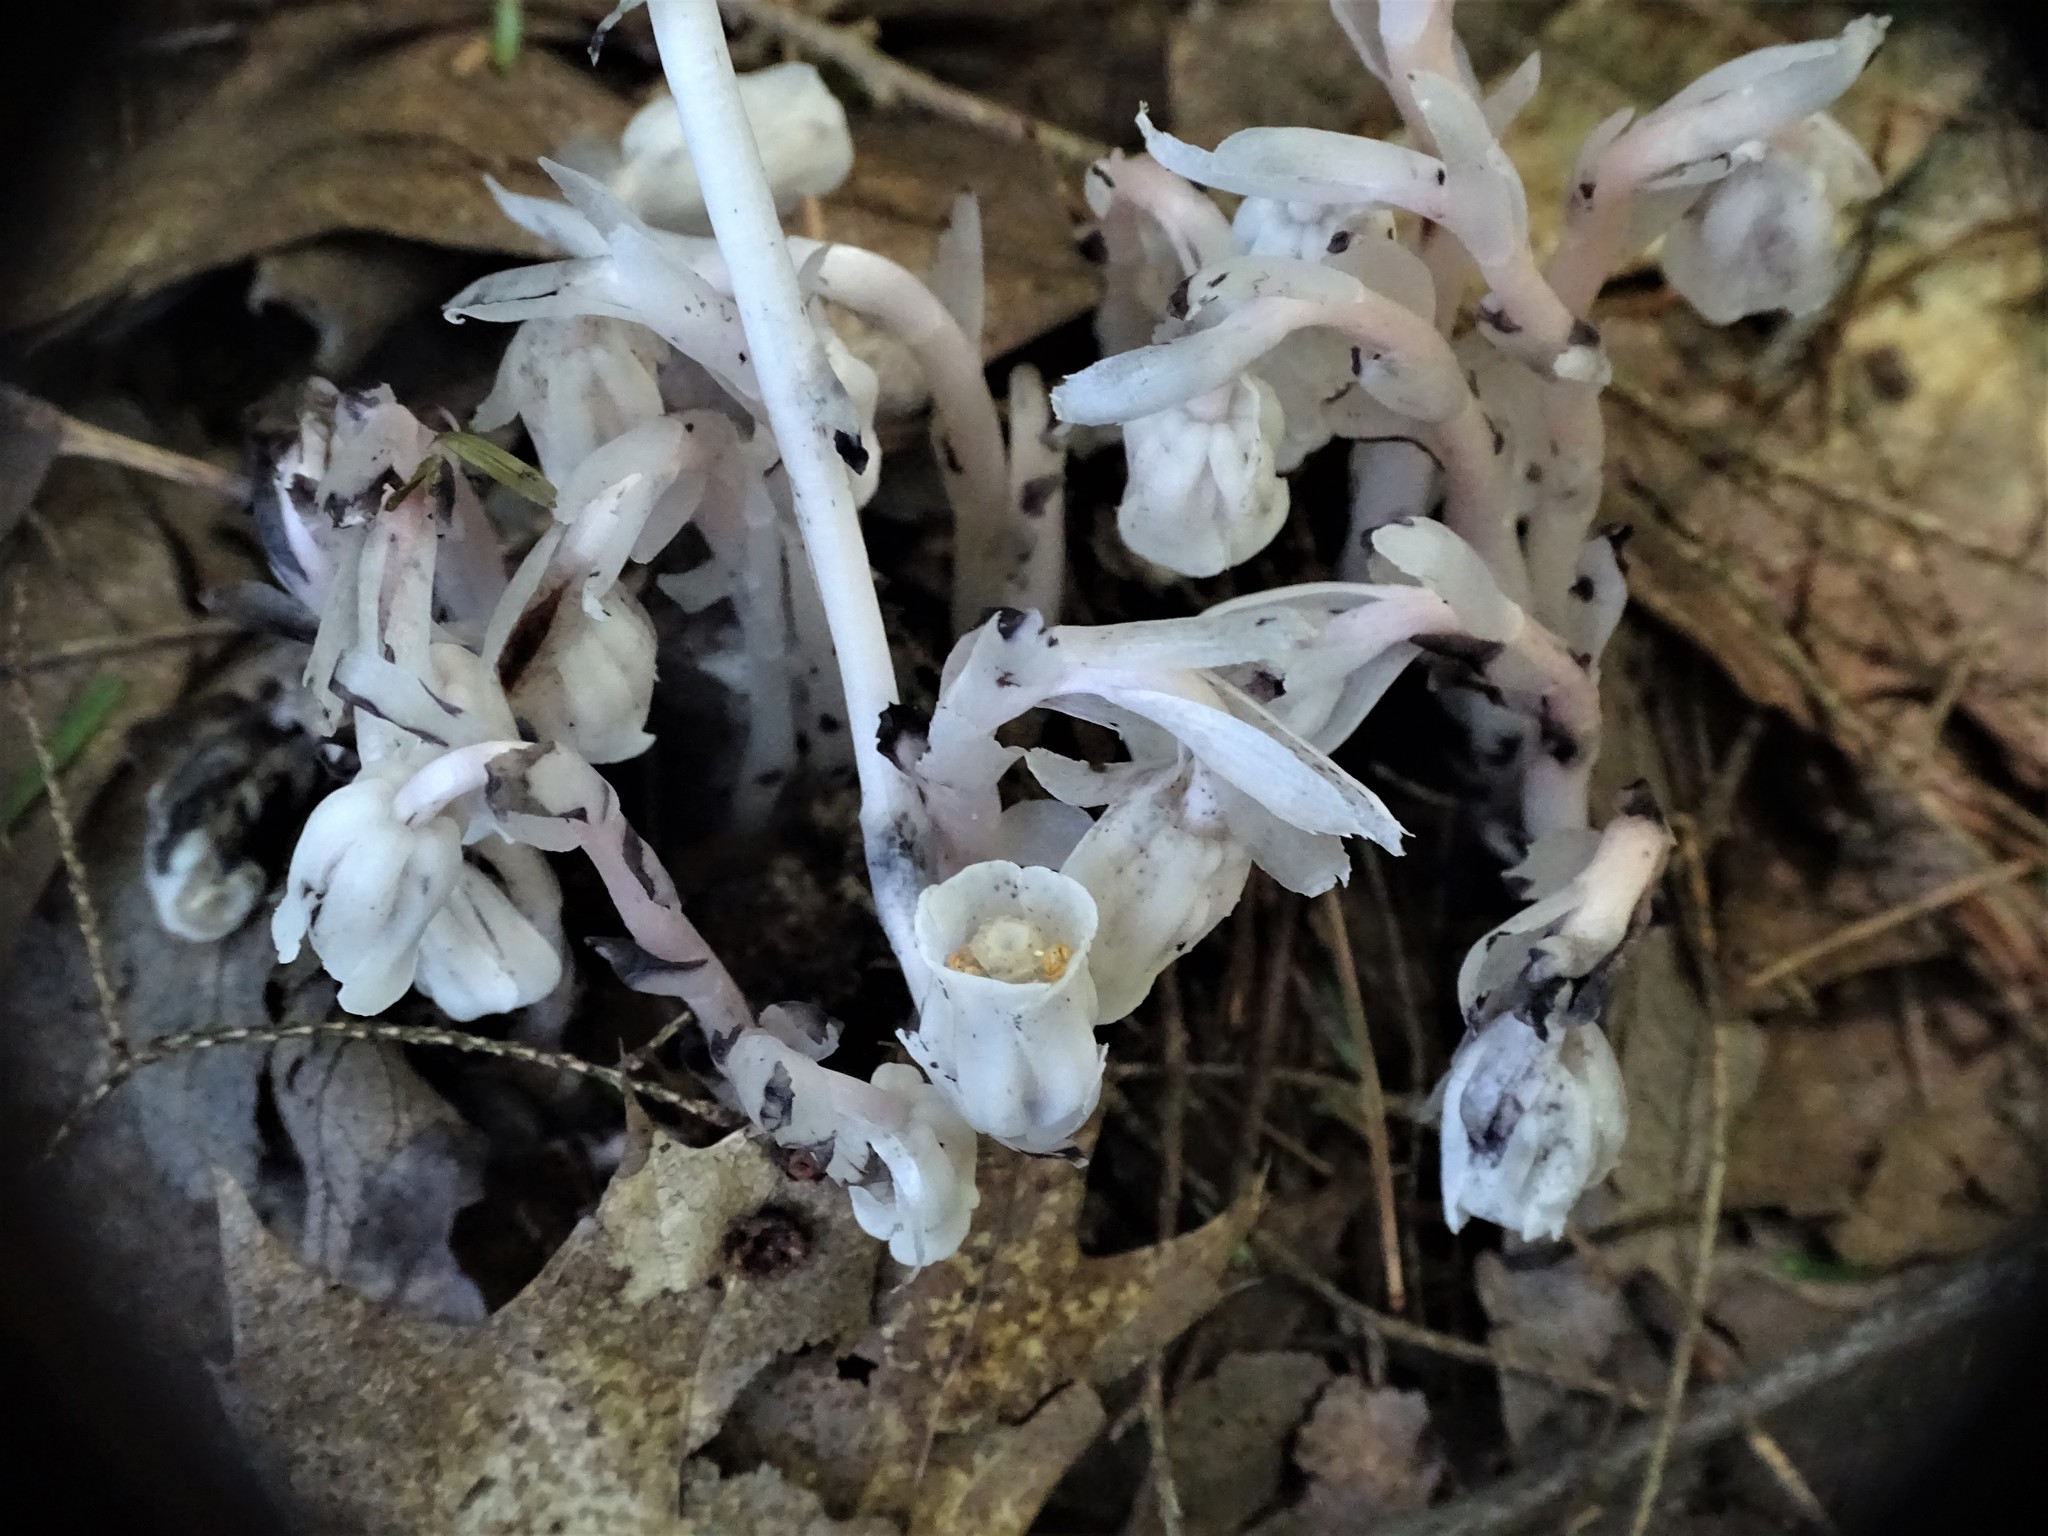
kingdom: Plantae
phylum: Tracheophyta
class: Magnoliopsida
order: Ericales
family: Ericaceae
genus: Monotropa
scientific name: Monotropa uniflora
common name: Convulsion root
